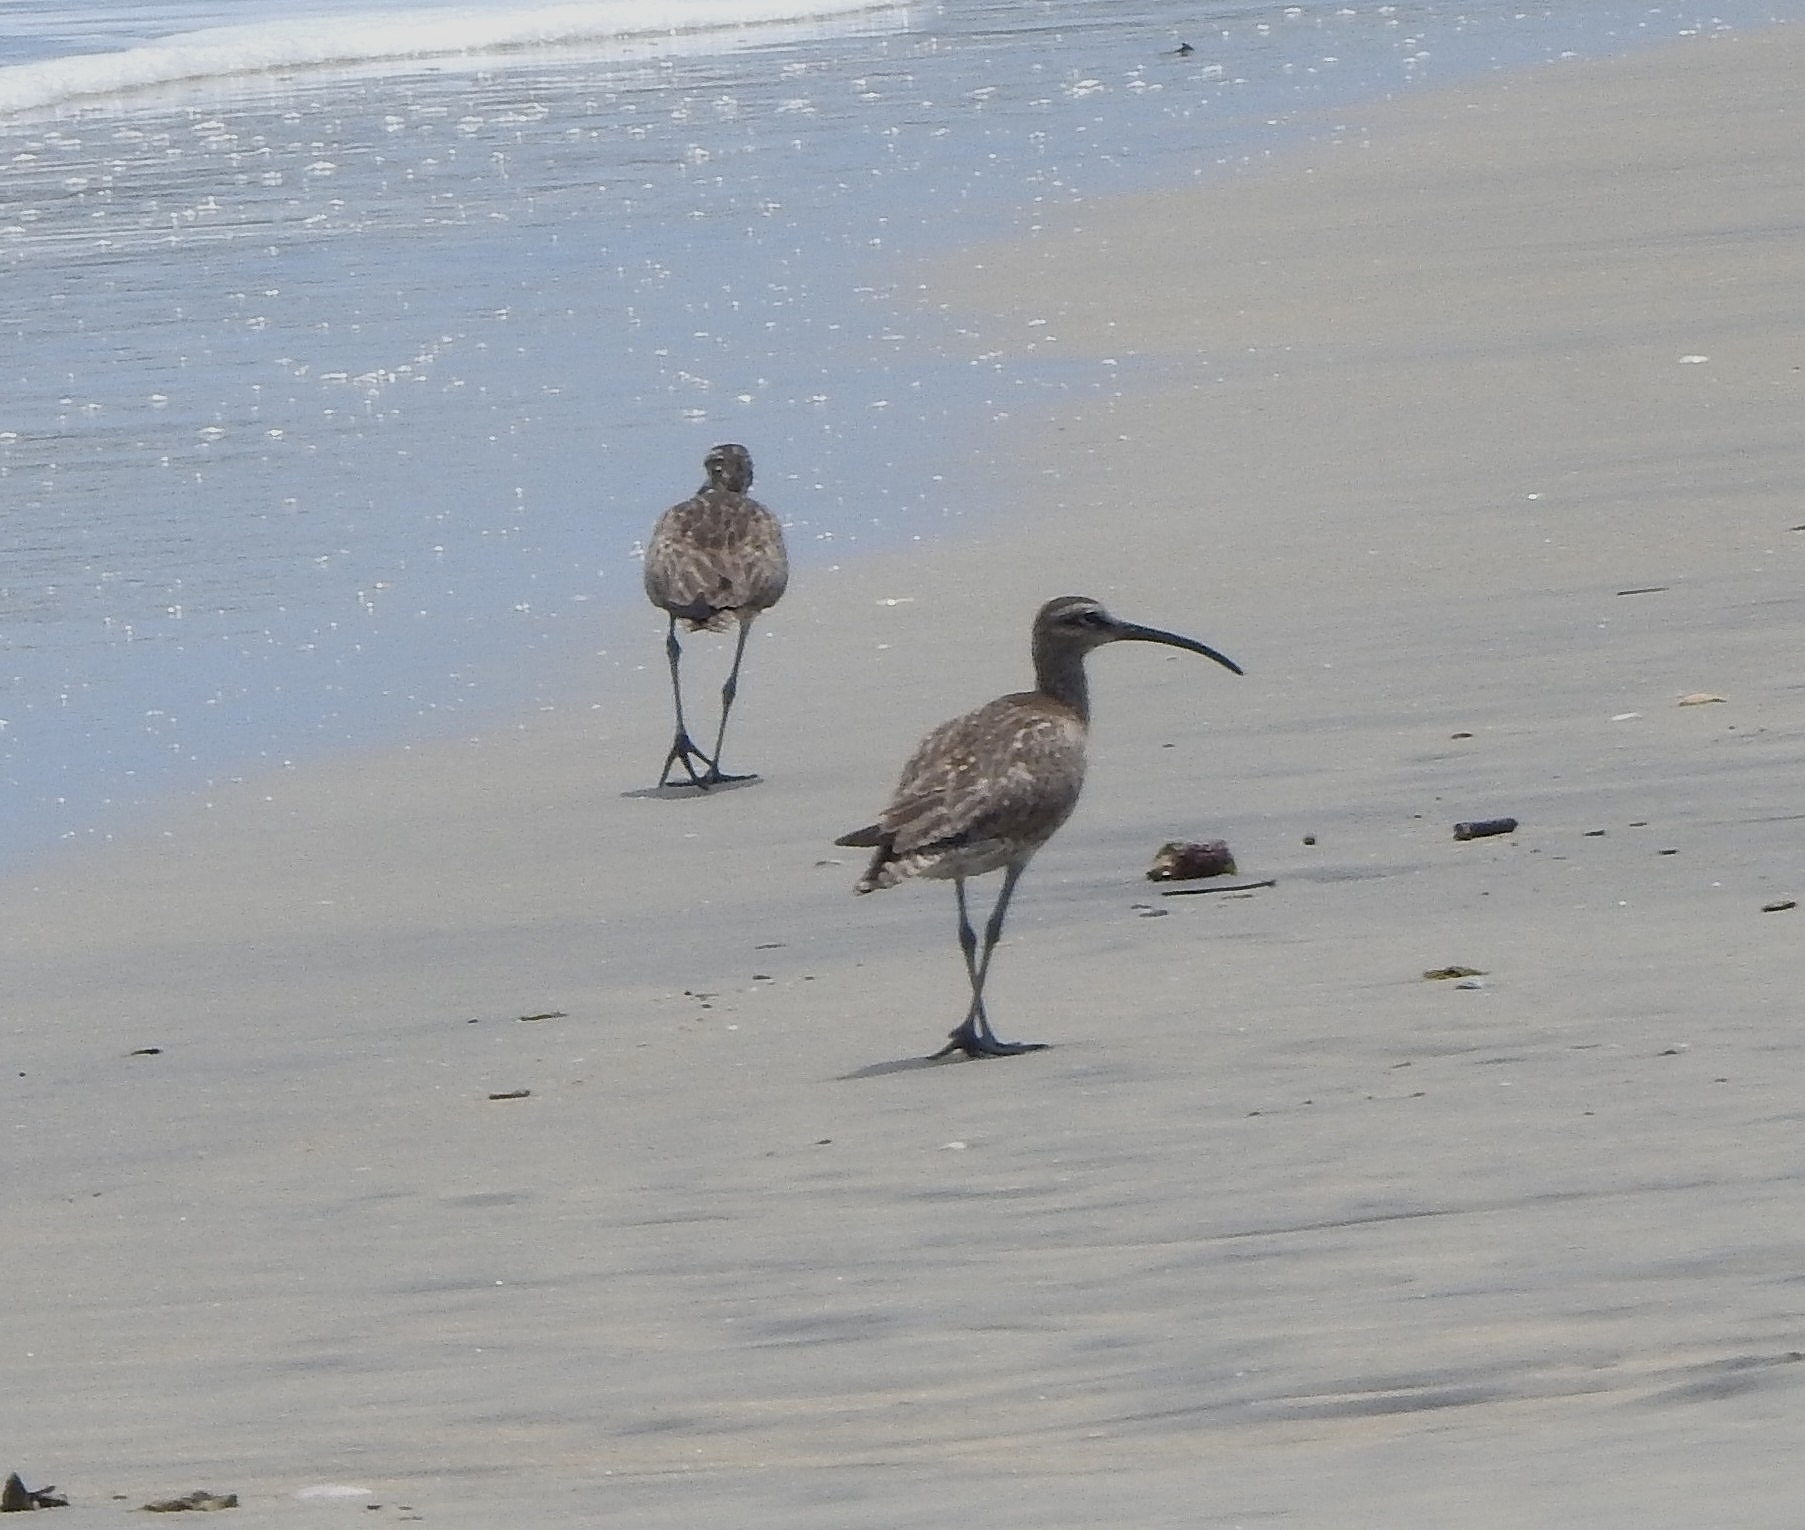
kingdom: Animalia
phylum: Chordata
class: Aves
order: Charadriiformes
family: Scolopacidae
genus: Numenius
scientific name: Numenius phaeopus
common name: Whimbrel
